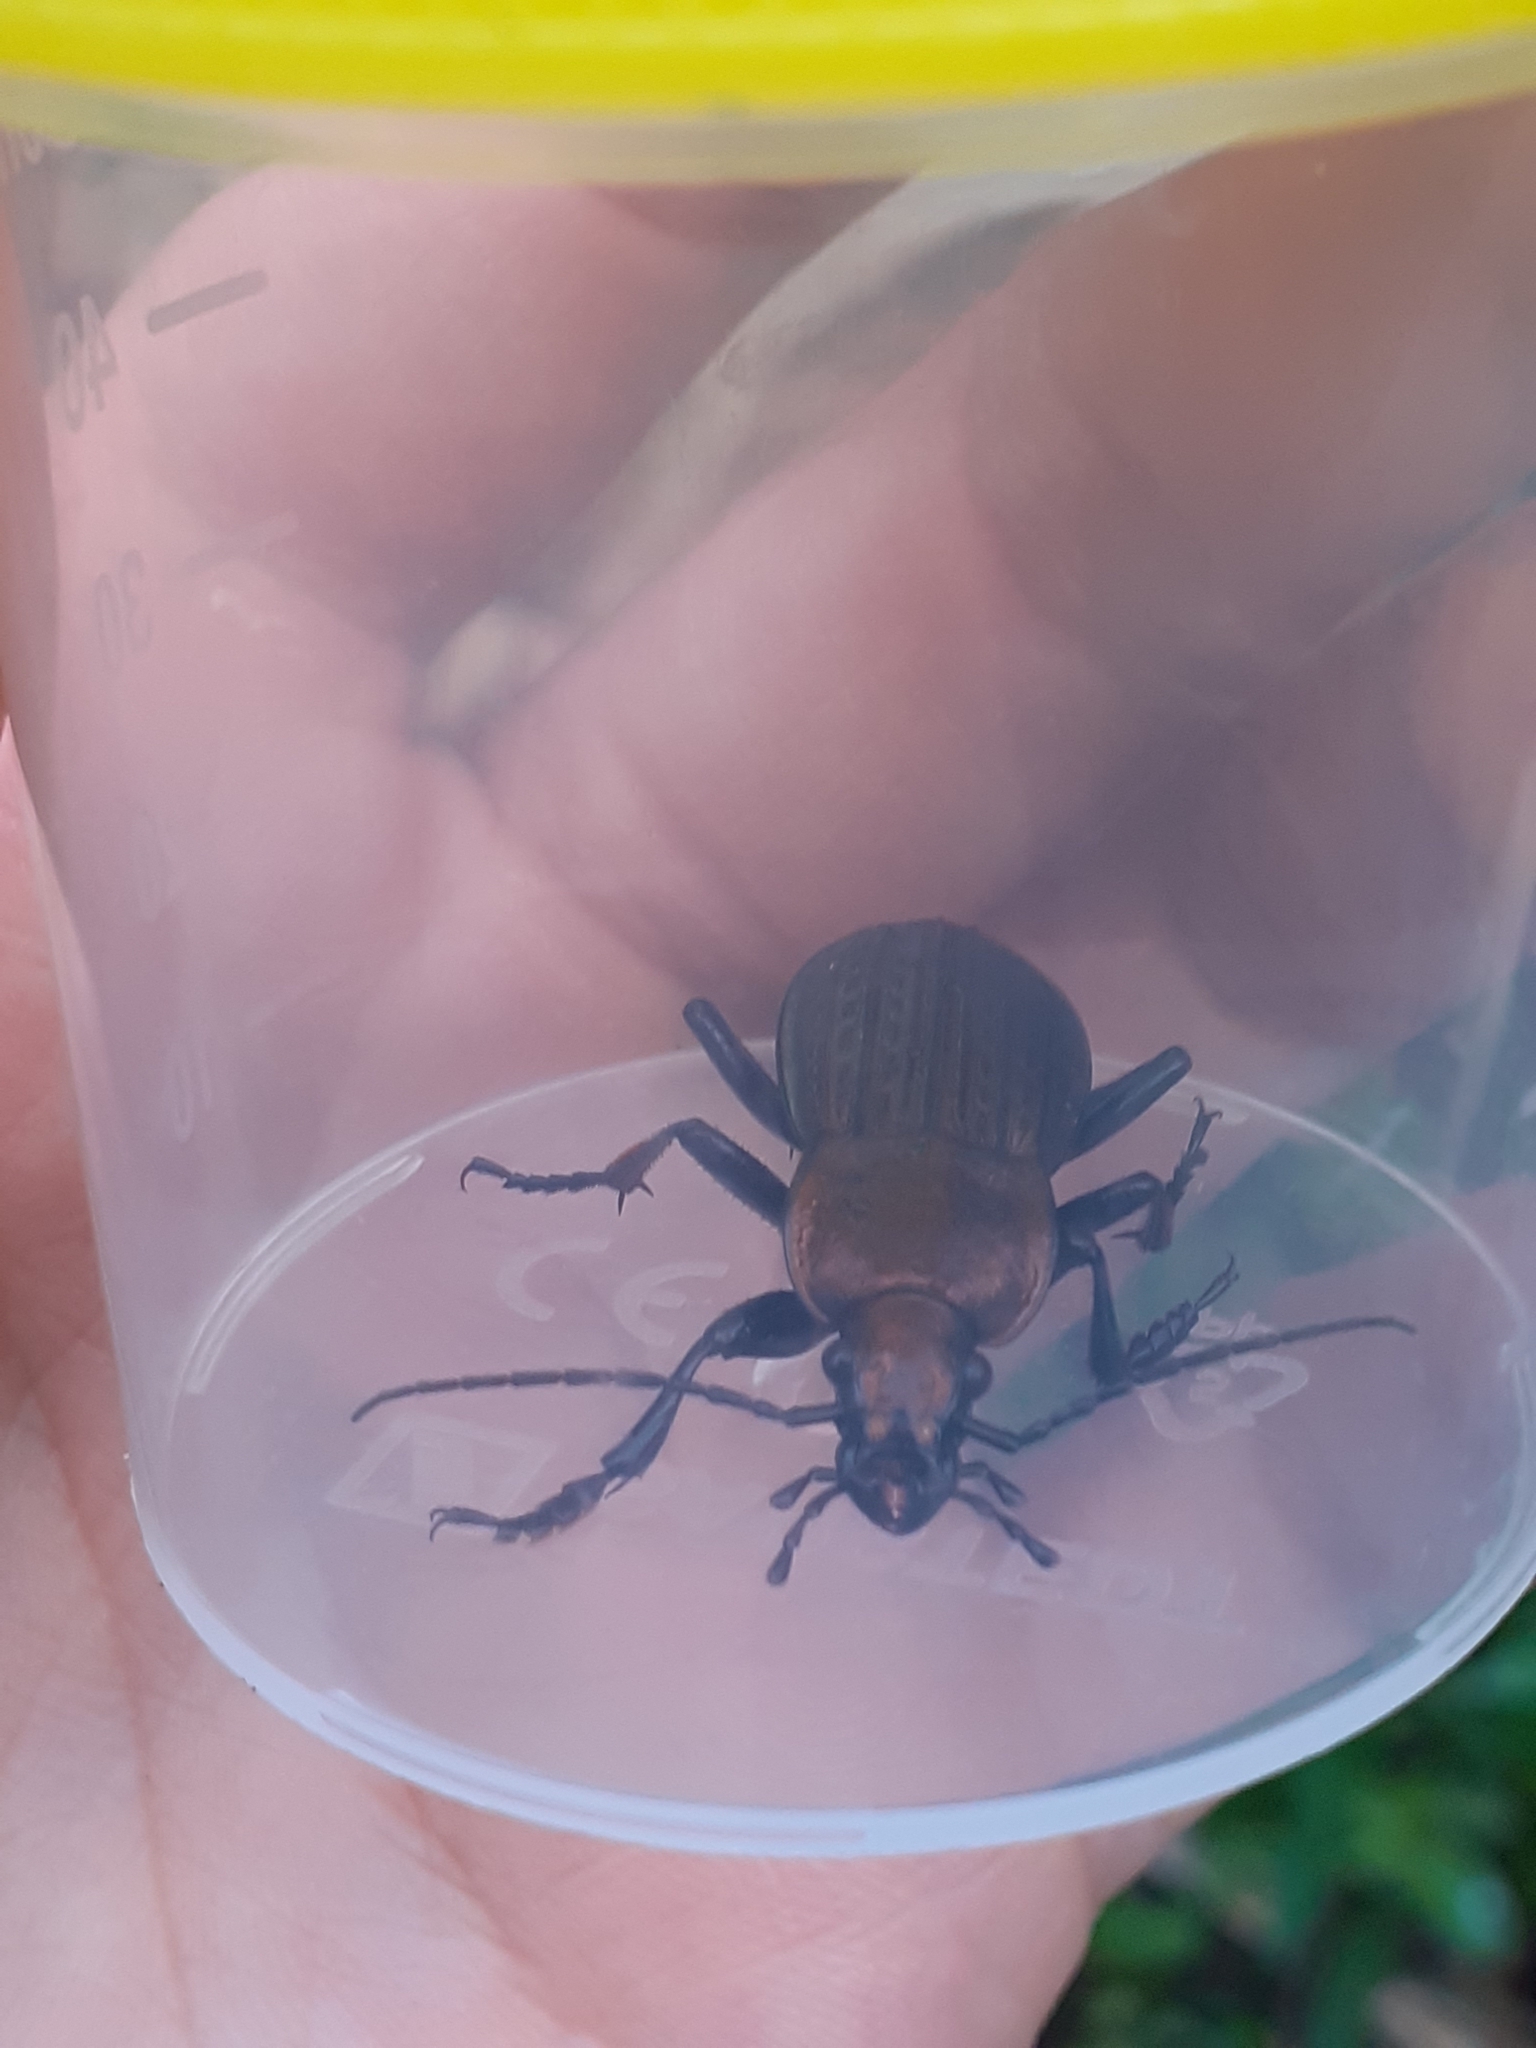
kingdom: Animalia
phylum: Arthropoda
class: Insecta
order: Coleoptera
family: Carabidae
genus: Carabus
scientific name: Carabus ulrichii
